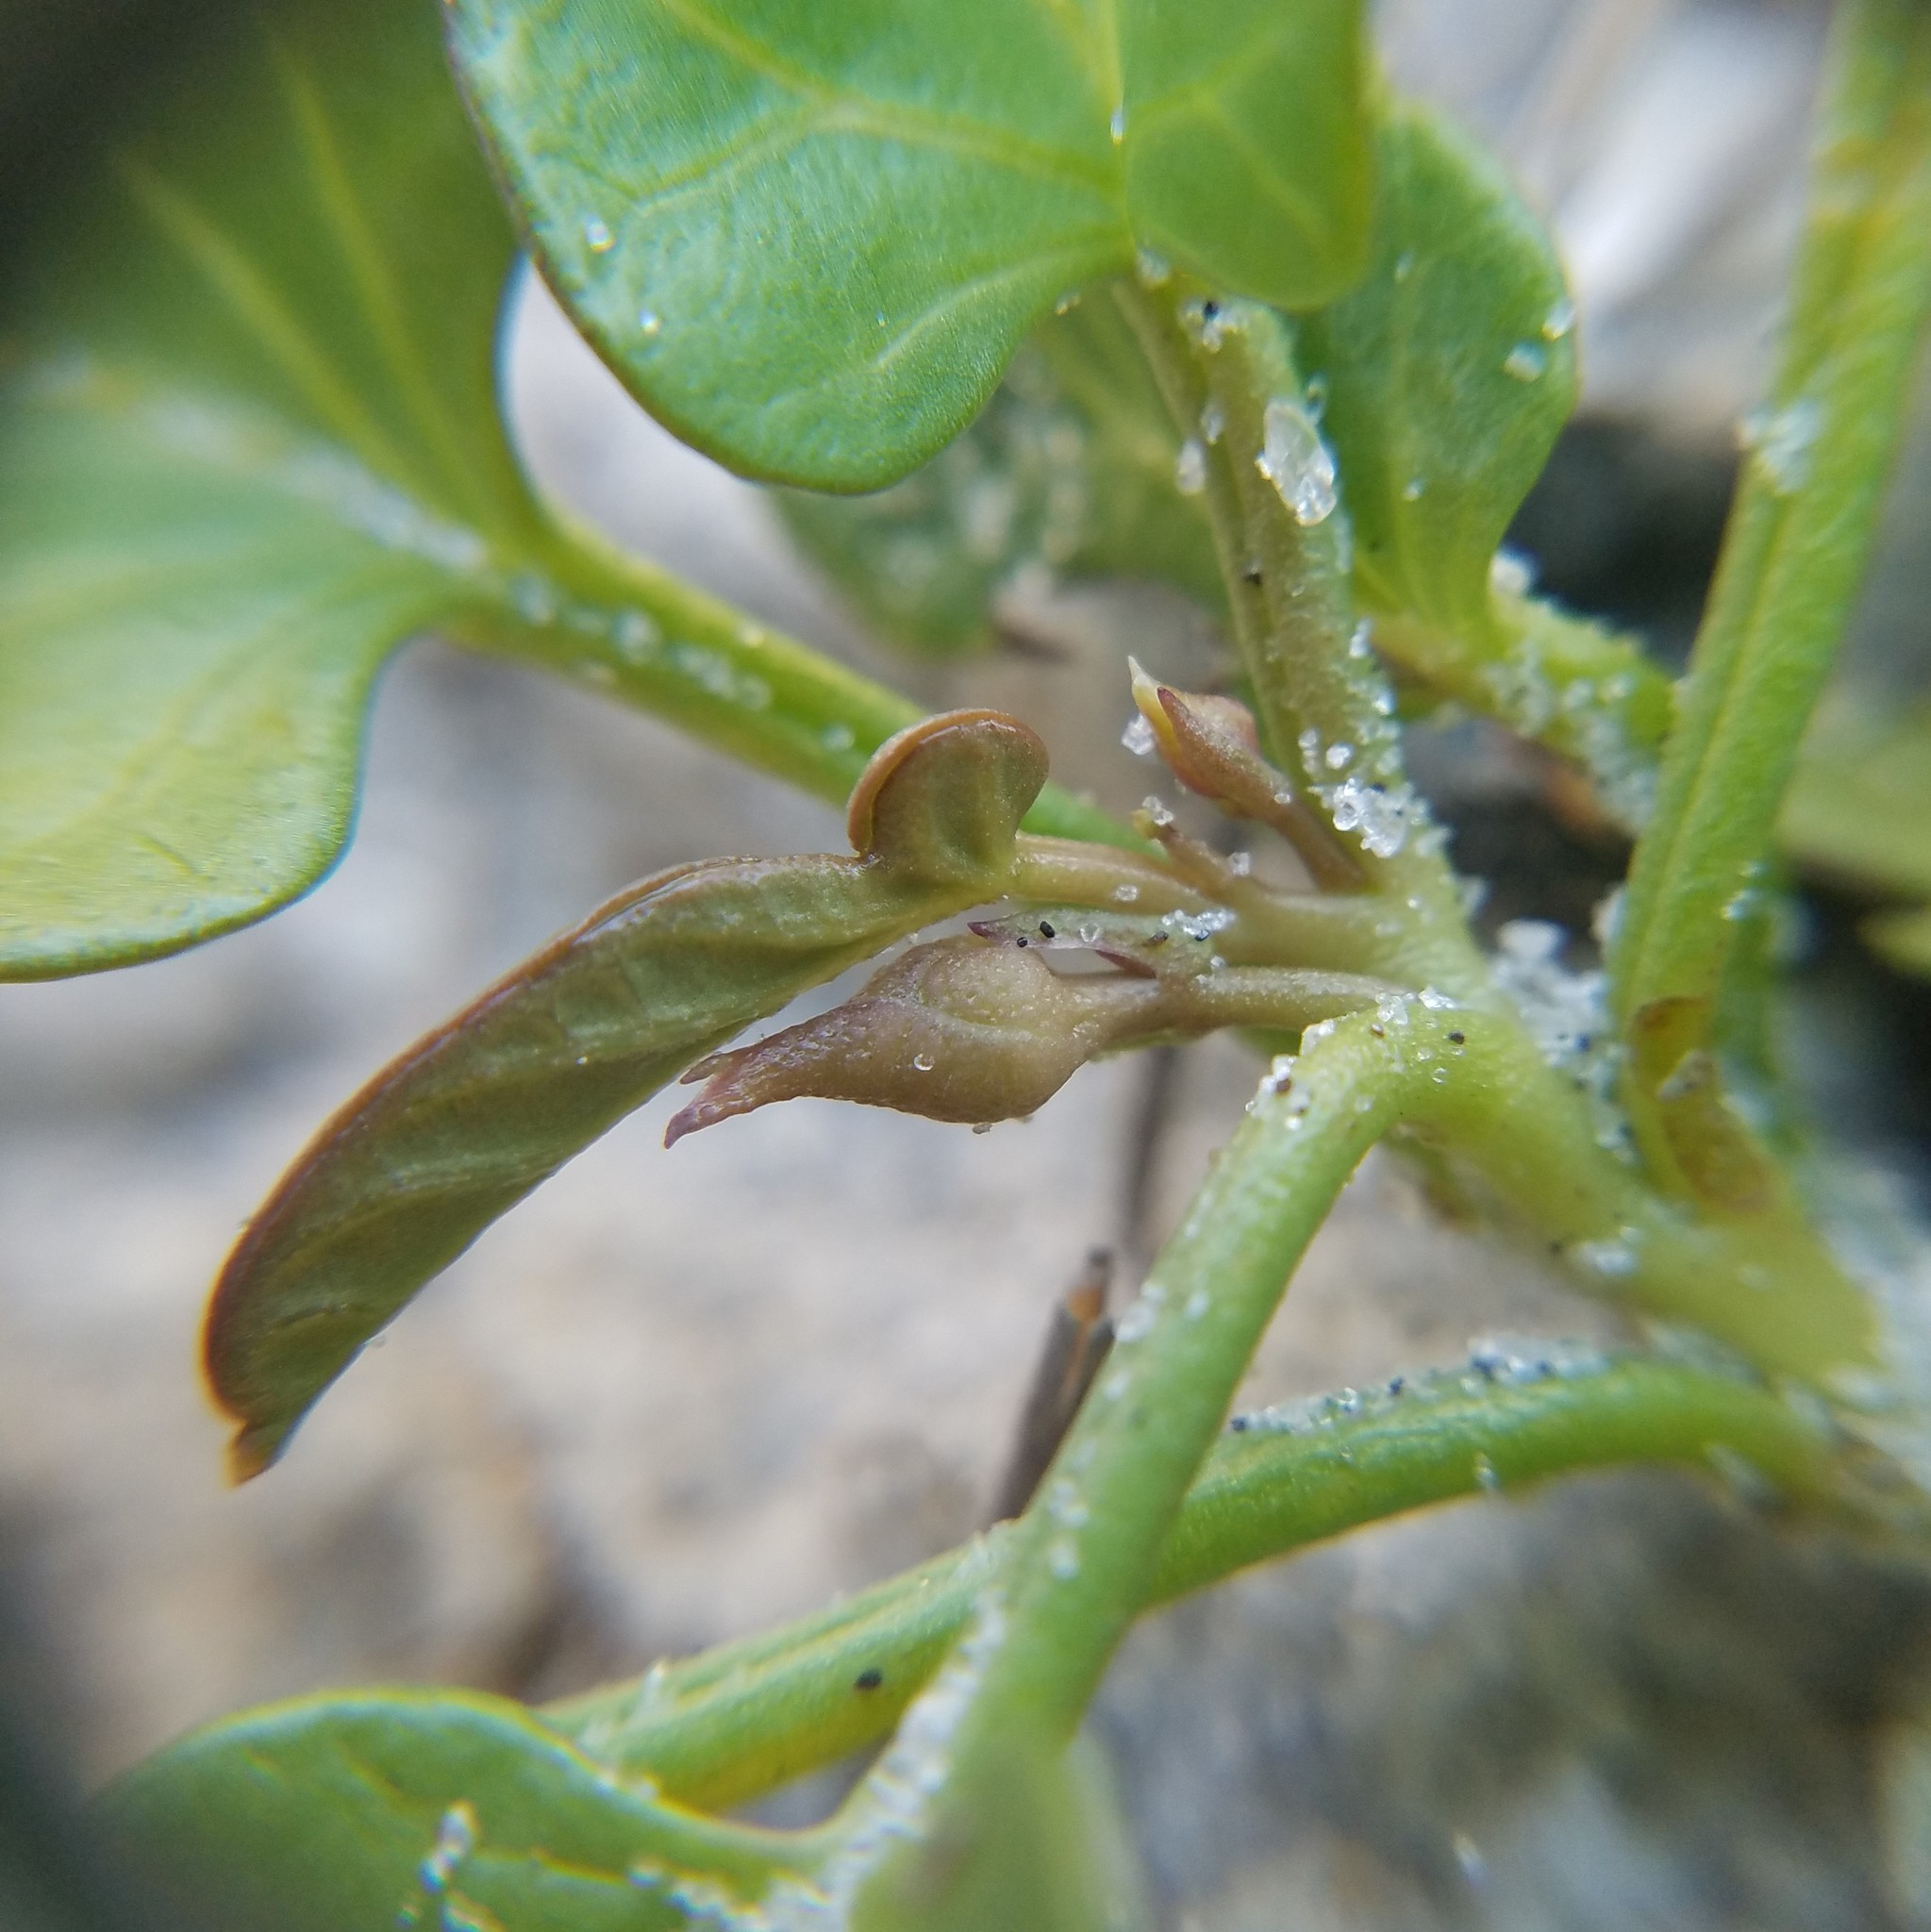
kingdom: Plantae
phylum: Tracheophyta
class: Magnoliopsida
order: Solanales
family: Convolvulaceae
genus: Ipomoea
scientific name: Ipomoea imperati
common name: Fiddle-leaf morning-glory
